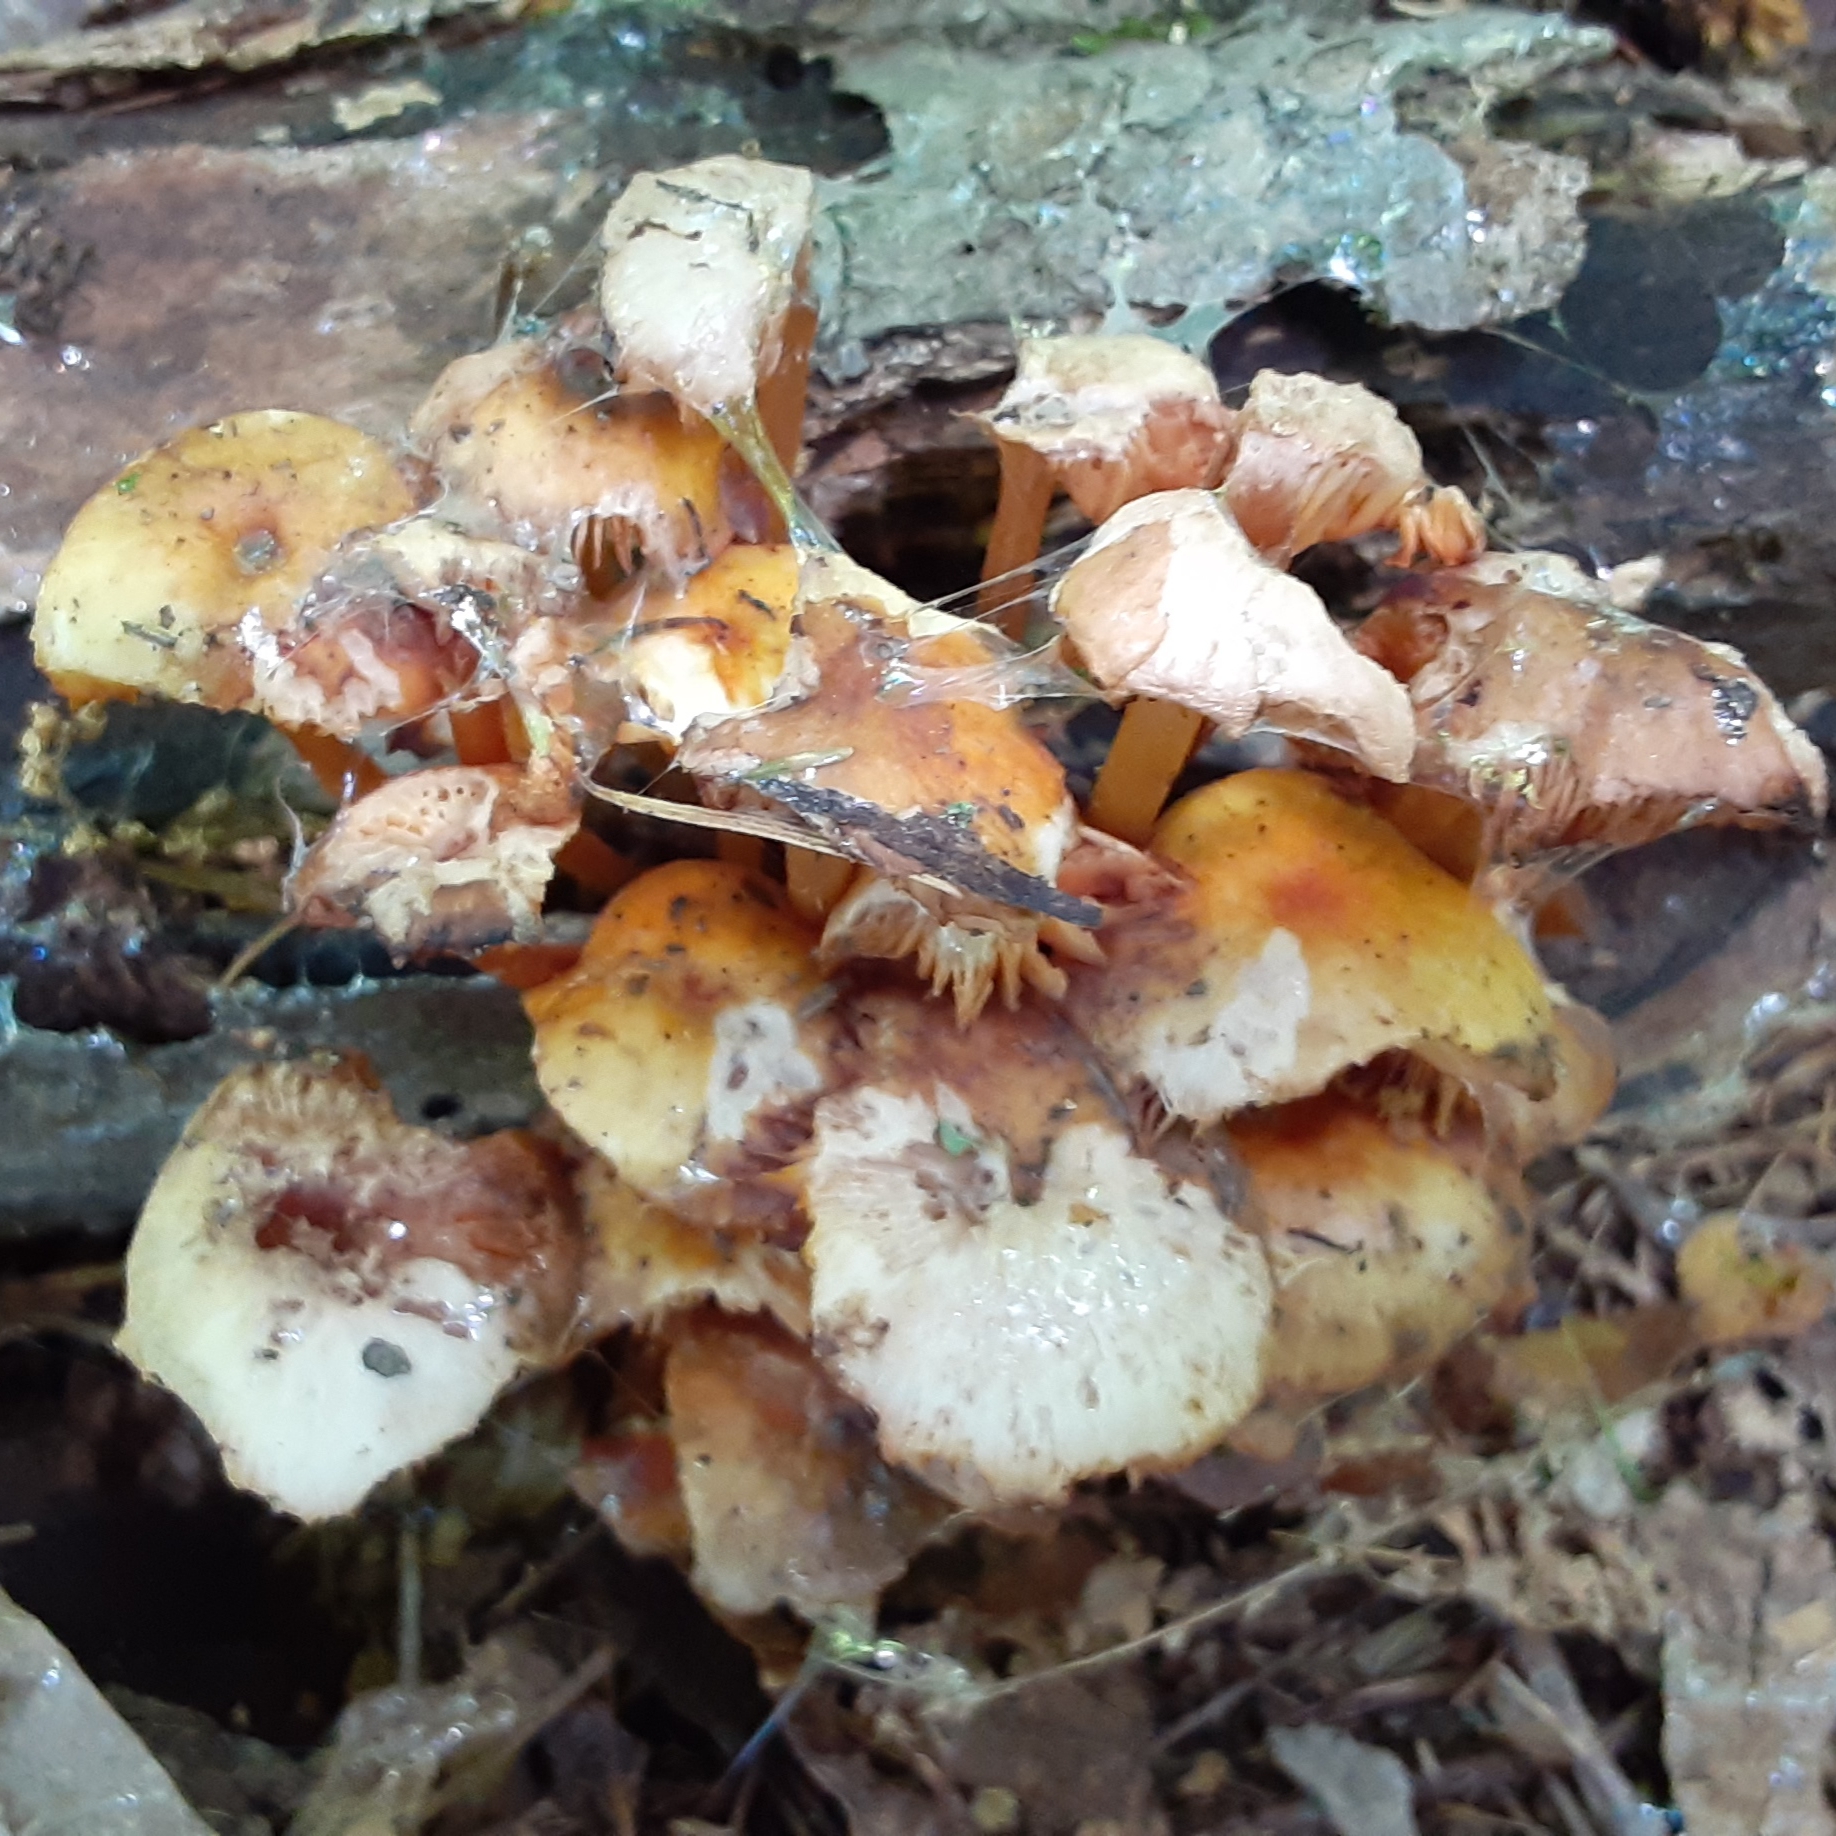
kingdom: Fungi
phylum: Basidiomycota
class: Agaricomycetes
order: Agaricales
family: Mycenaceae
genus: Mycena
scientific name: Mycena leaiana
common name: Orange mycena
